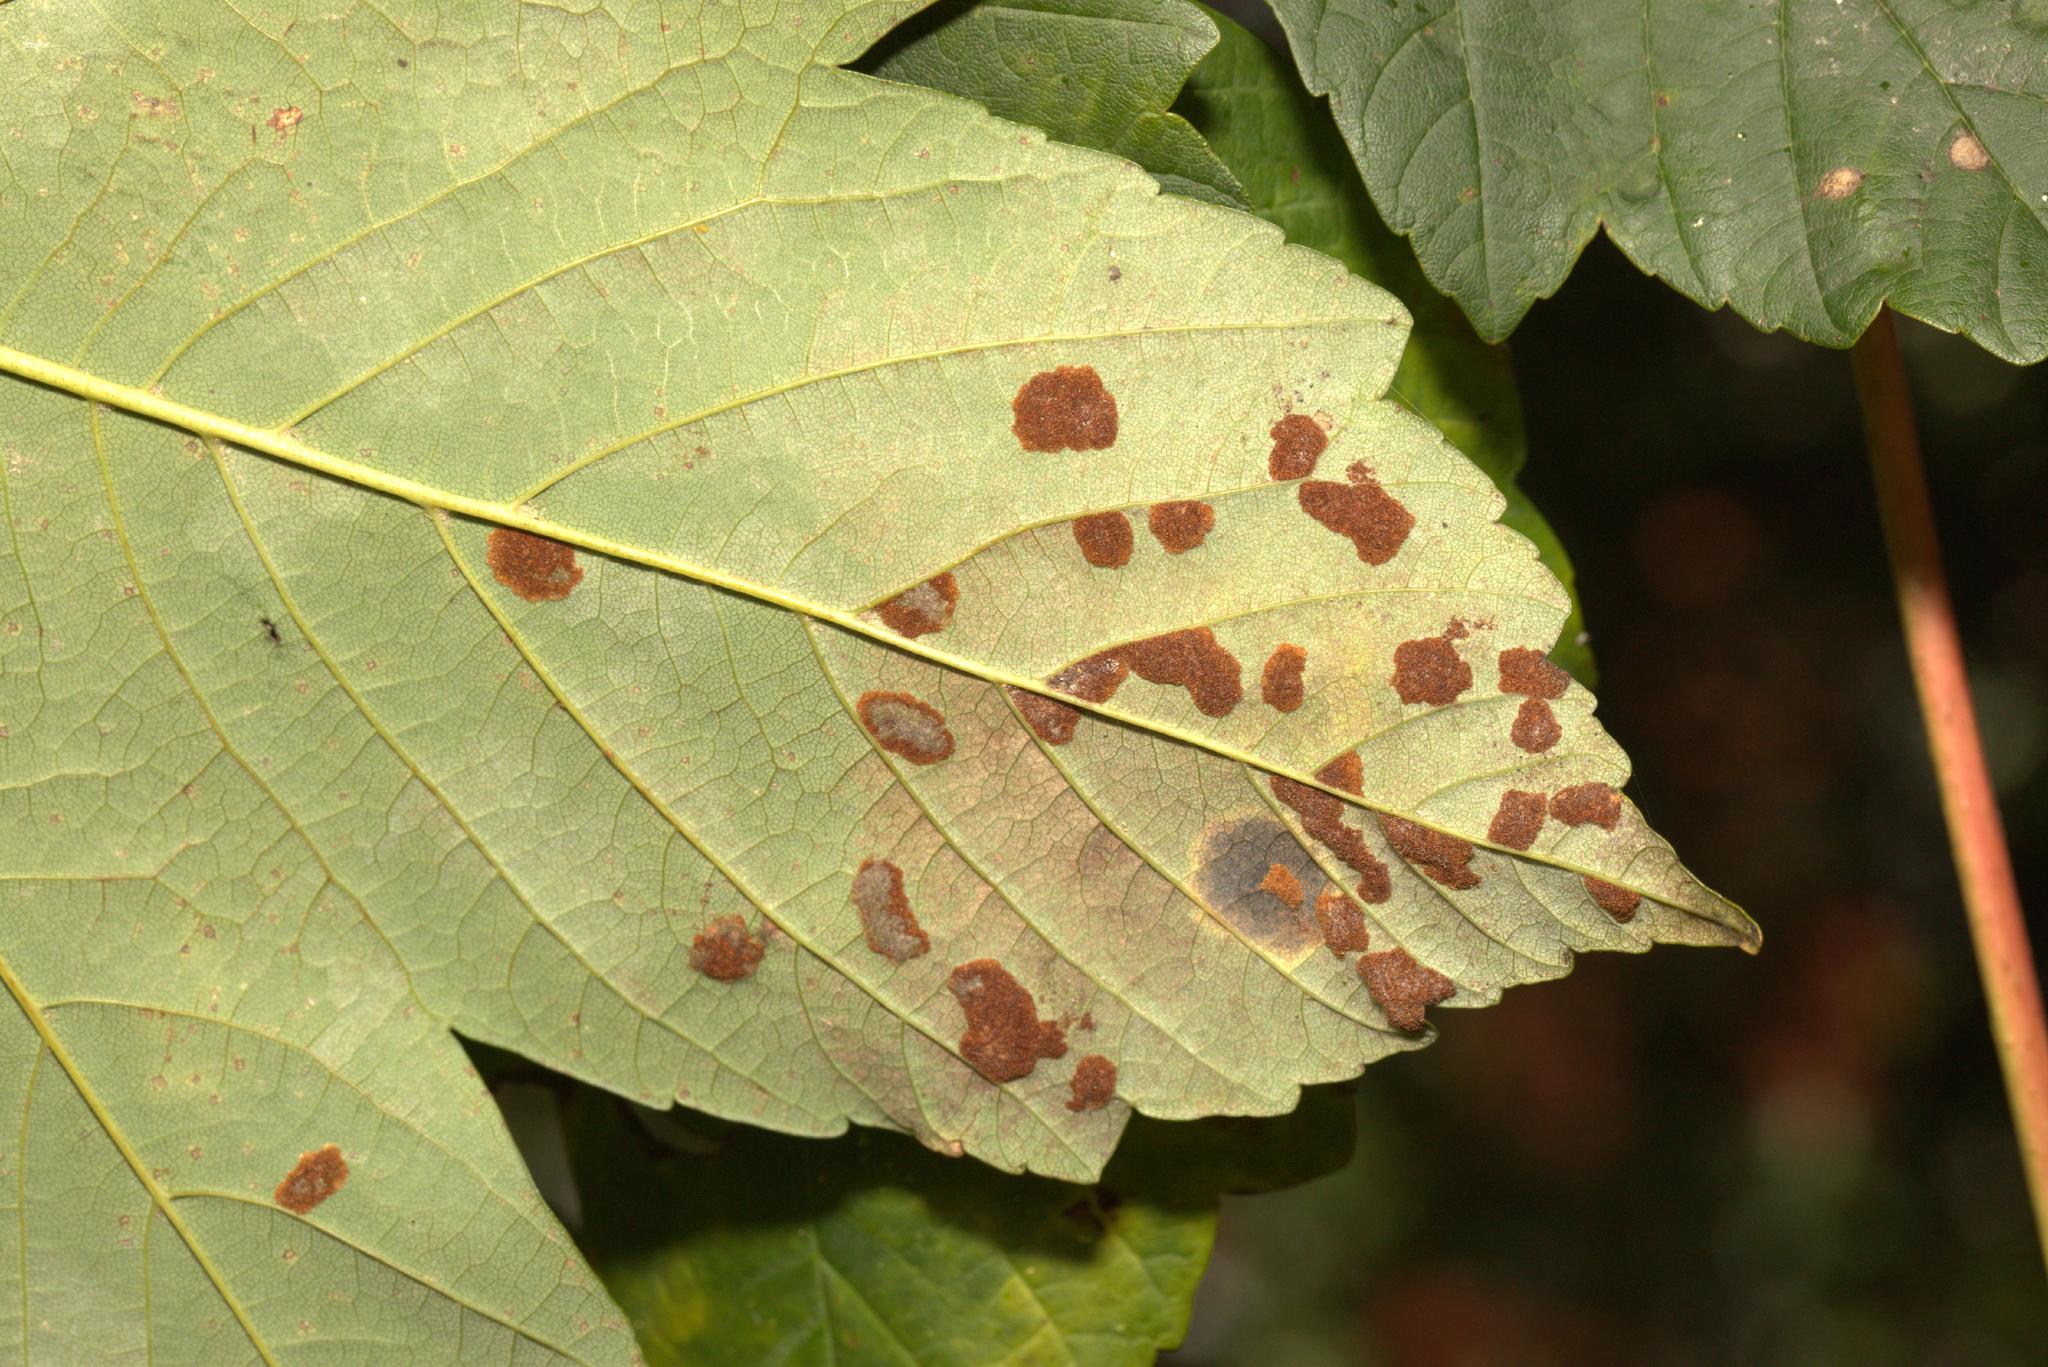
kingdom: Animalia
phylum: Arthropoda
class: Arachnida
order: Trombidiformes
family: Eriophyidae
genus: Aceria
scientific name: Aceria pseudoplatani
